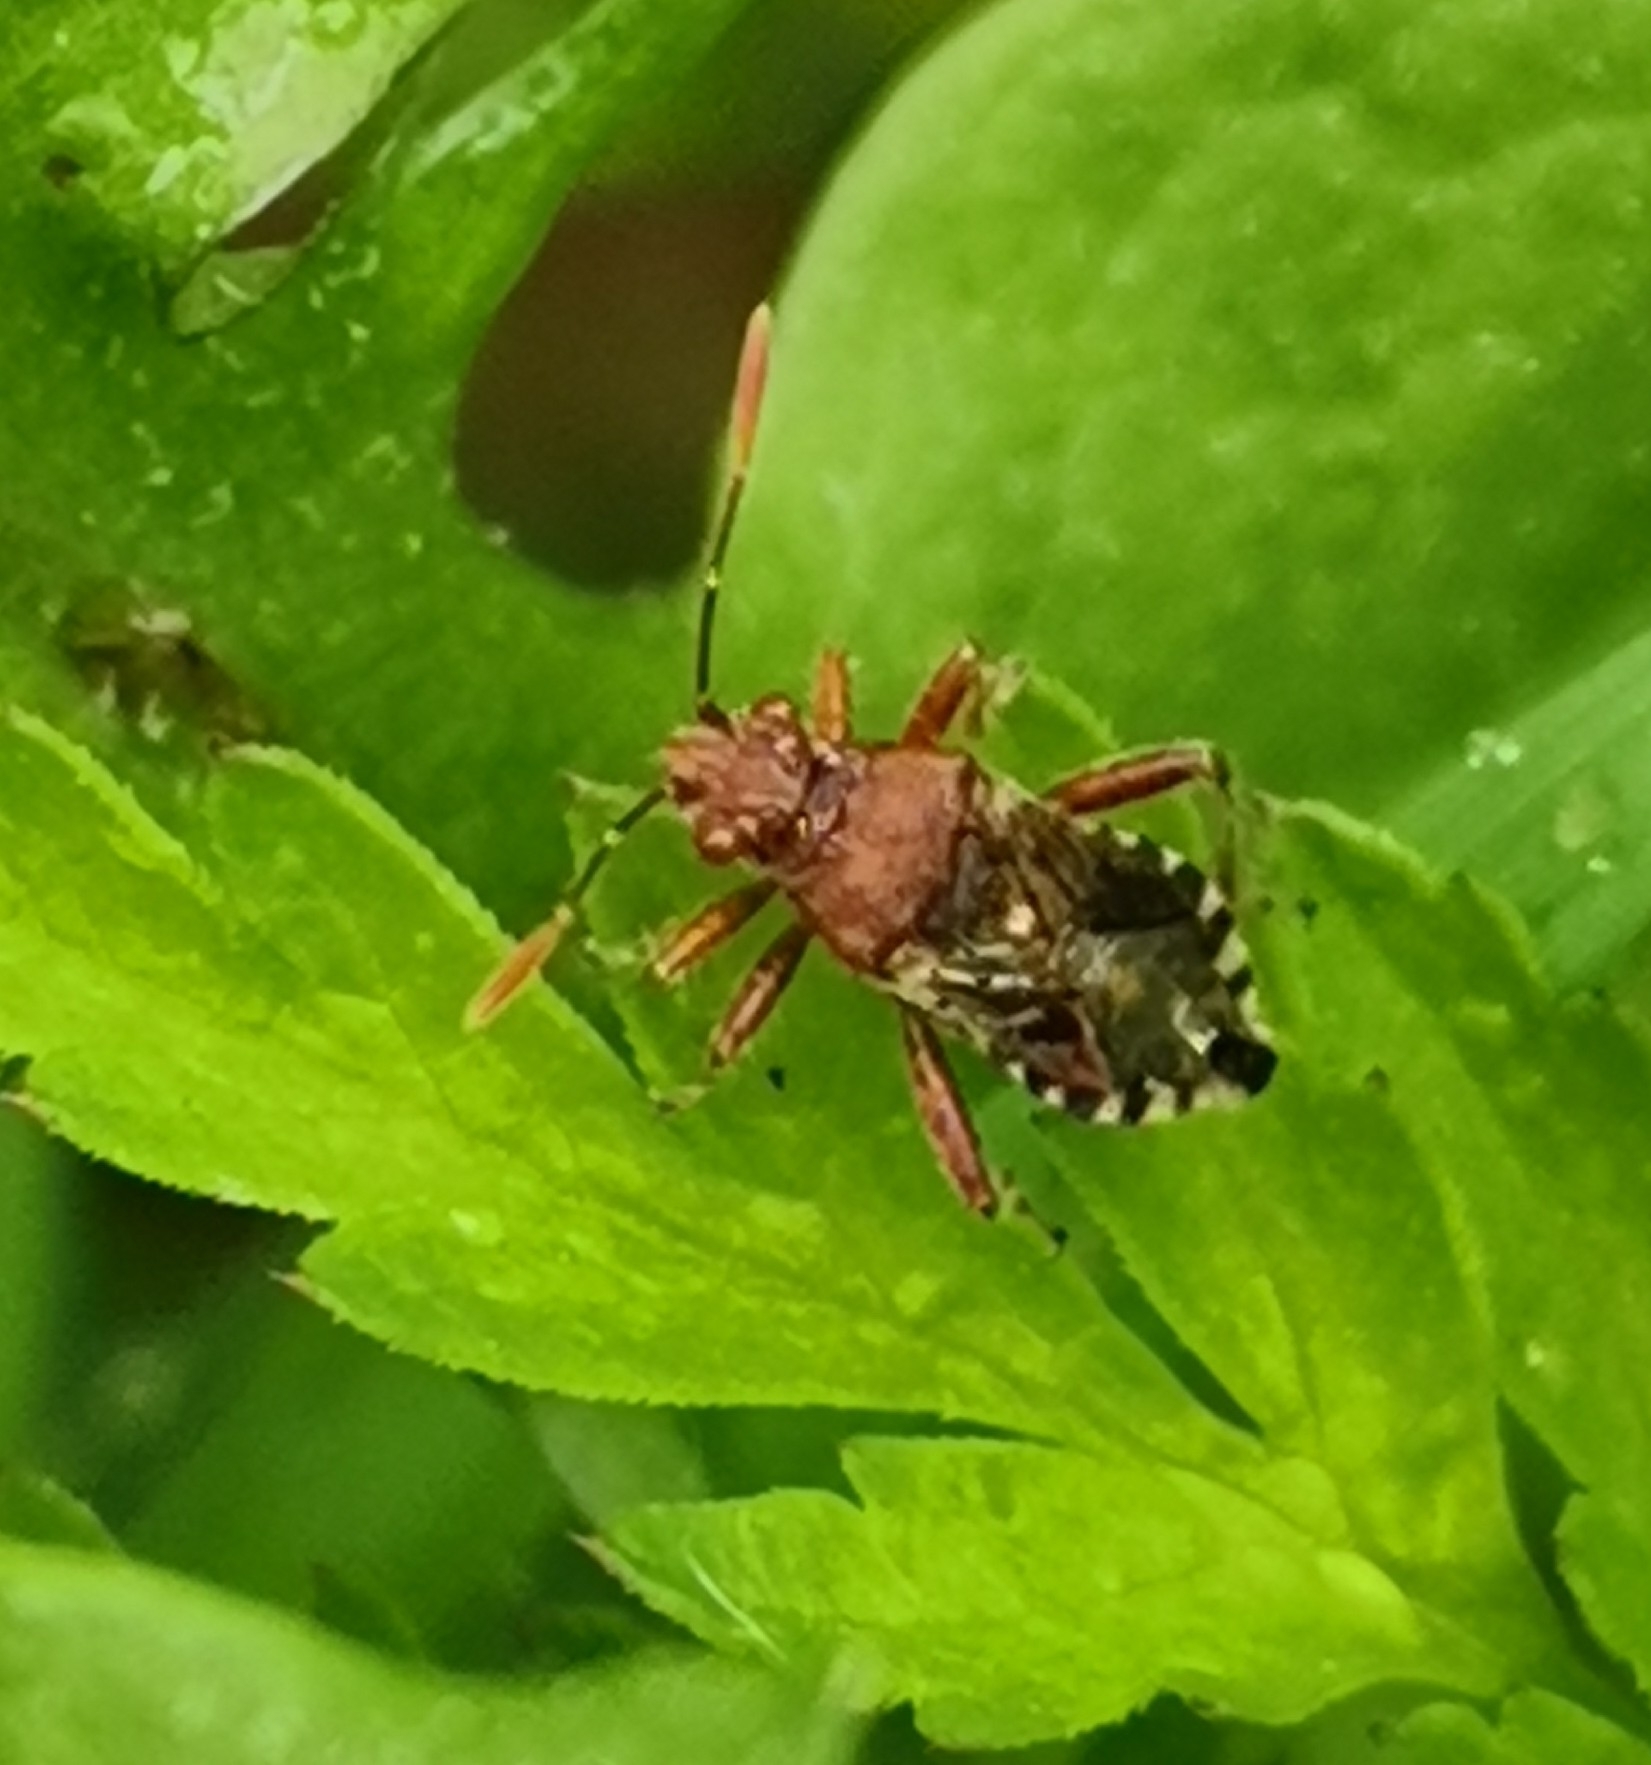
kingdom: Animalia
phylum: Arthropoda
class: Insecta
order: Hemiptera
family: Rhopalidae
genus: Rhopalus
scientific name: Rhopalus subrufus
